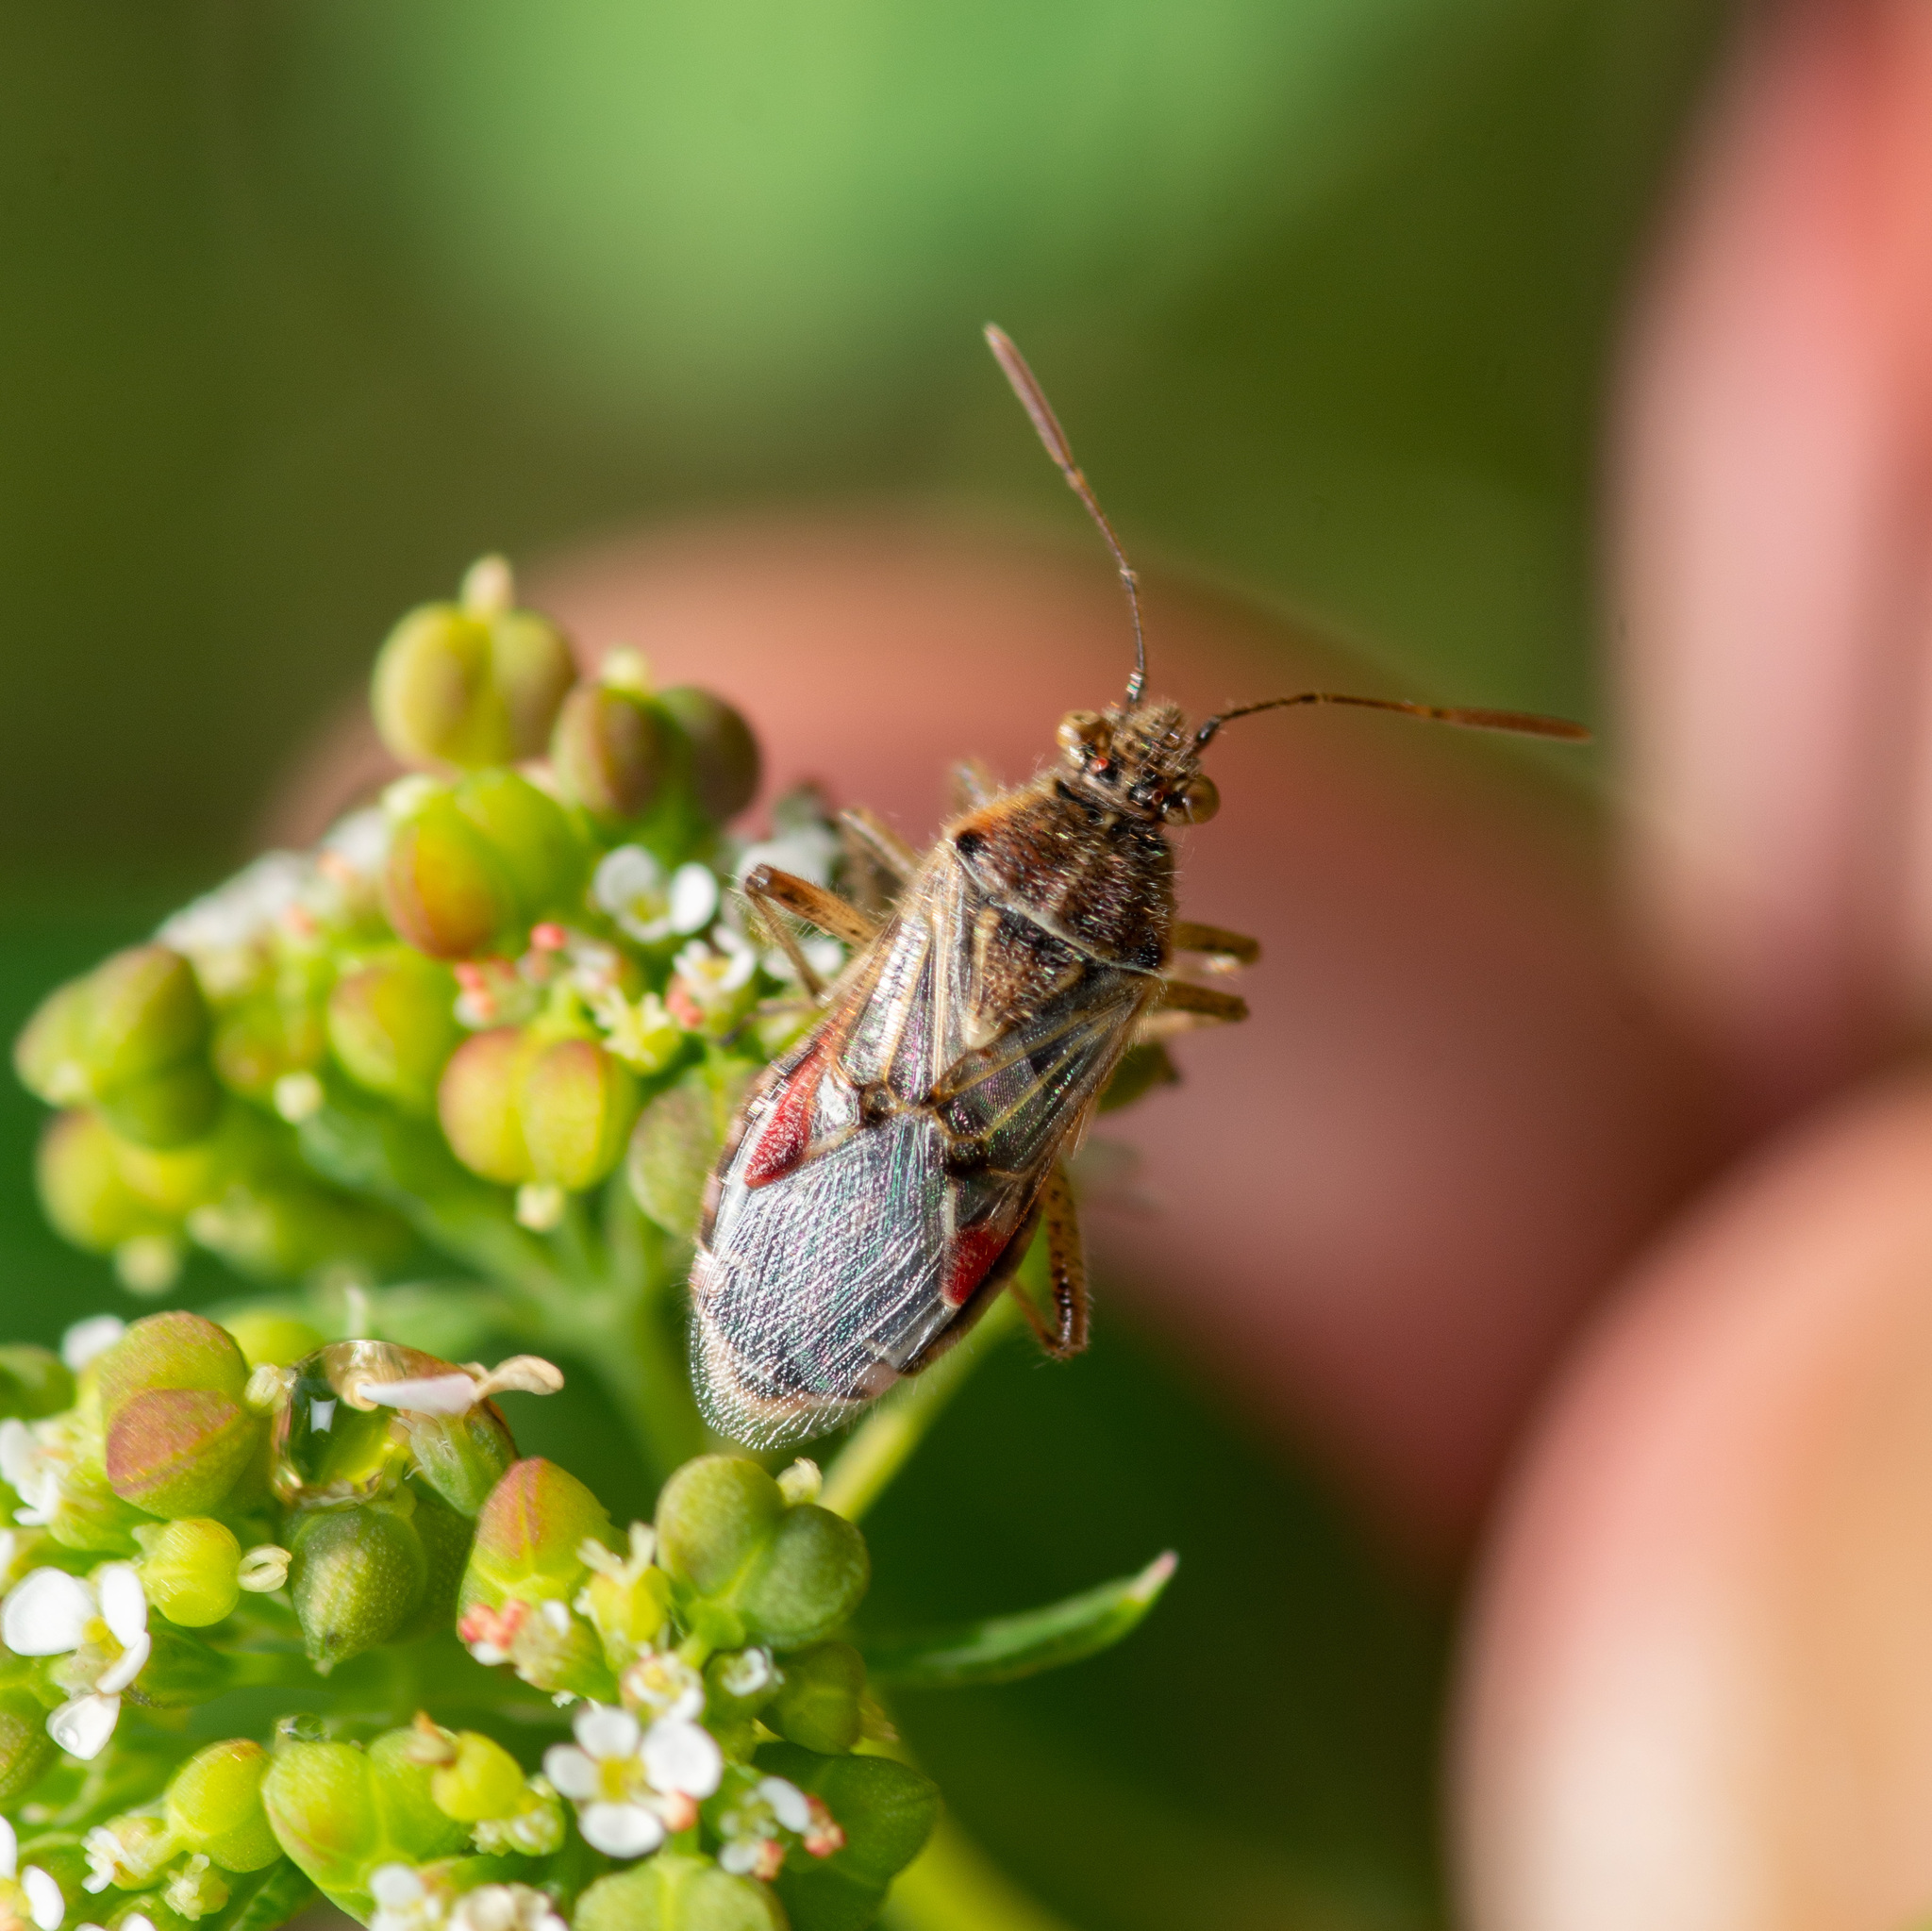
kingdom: Animalia
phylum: Arthropoda
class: Insecta
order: Hemiptera
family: Rhopalidae
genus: Liorhyssus
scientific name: Liorhyssus hyalinus
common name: Scentless plant bug
